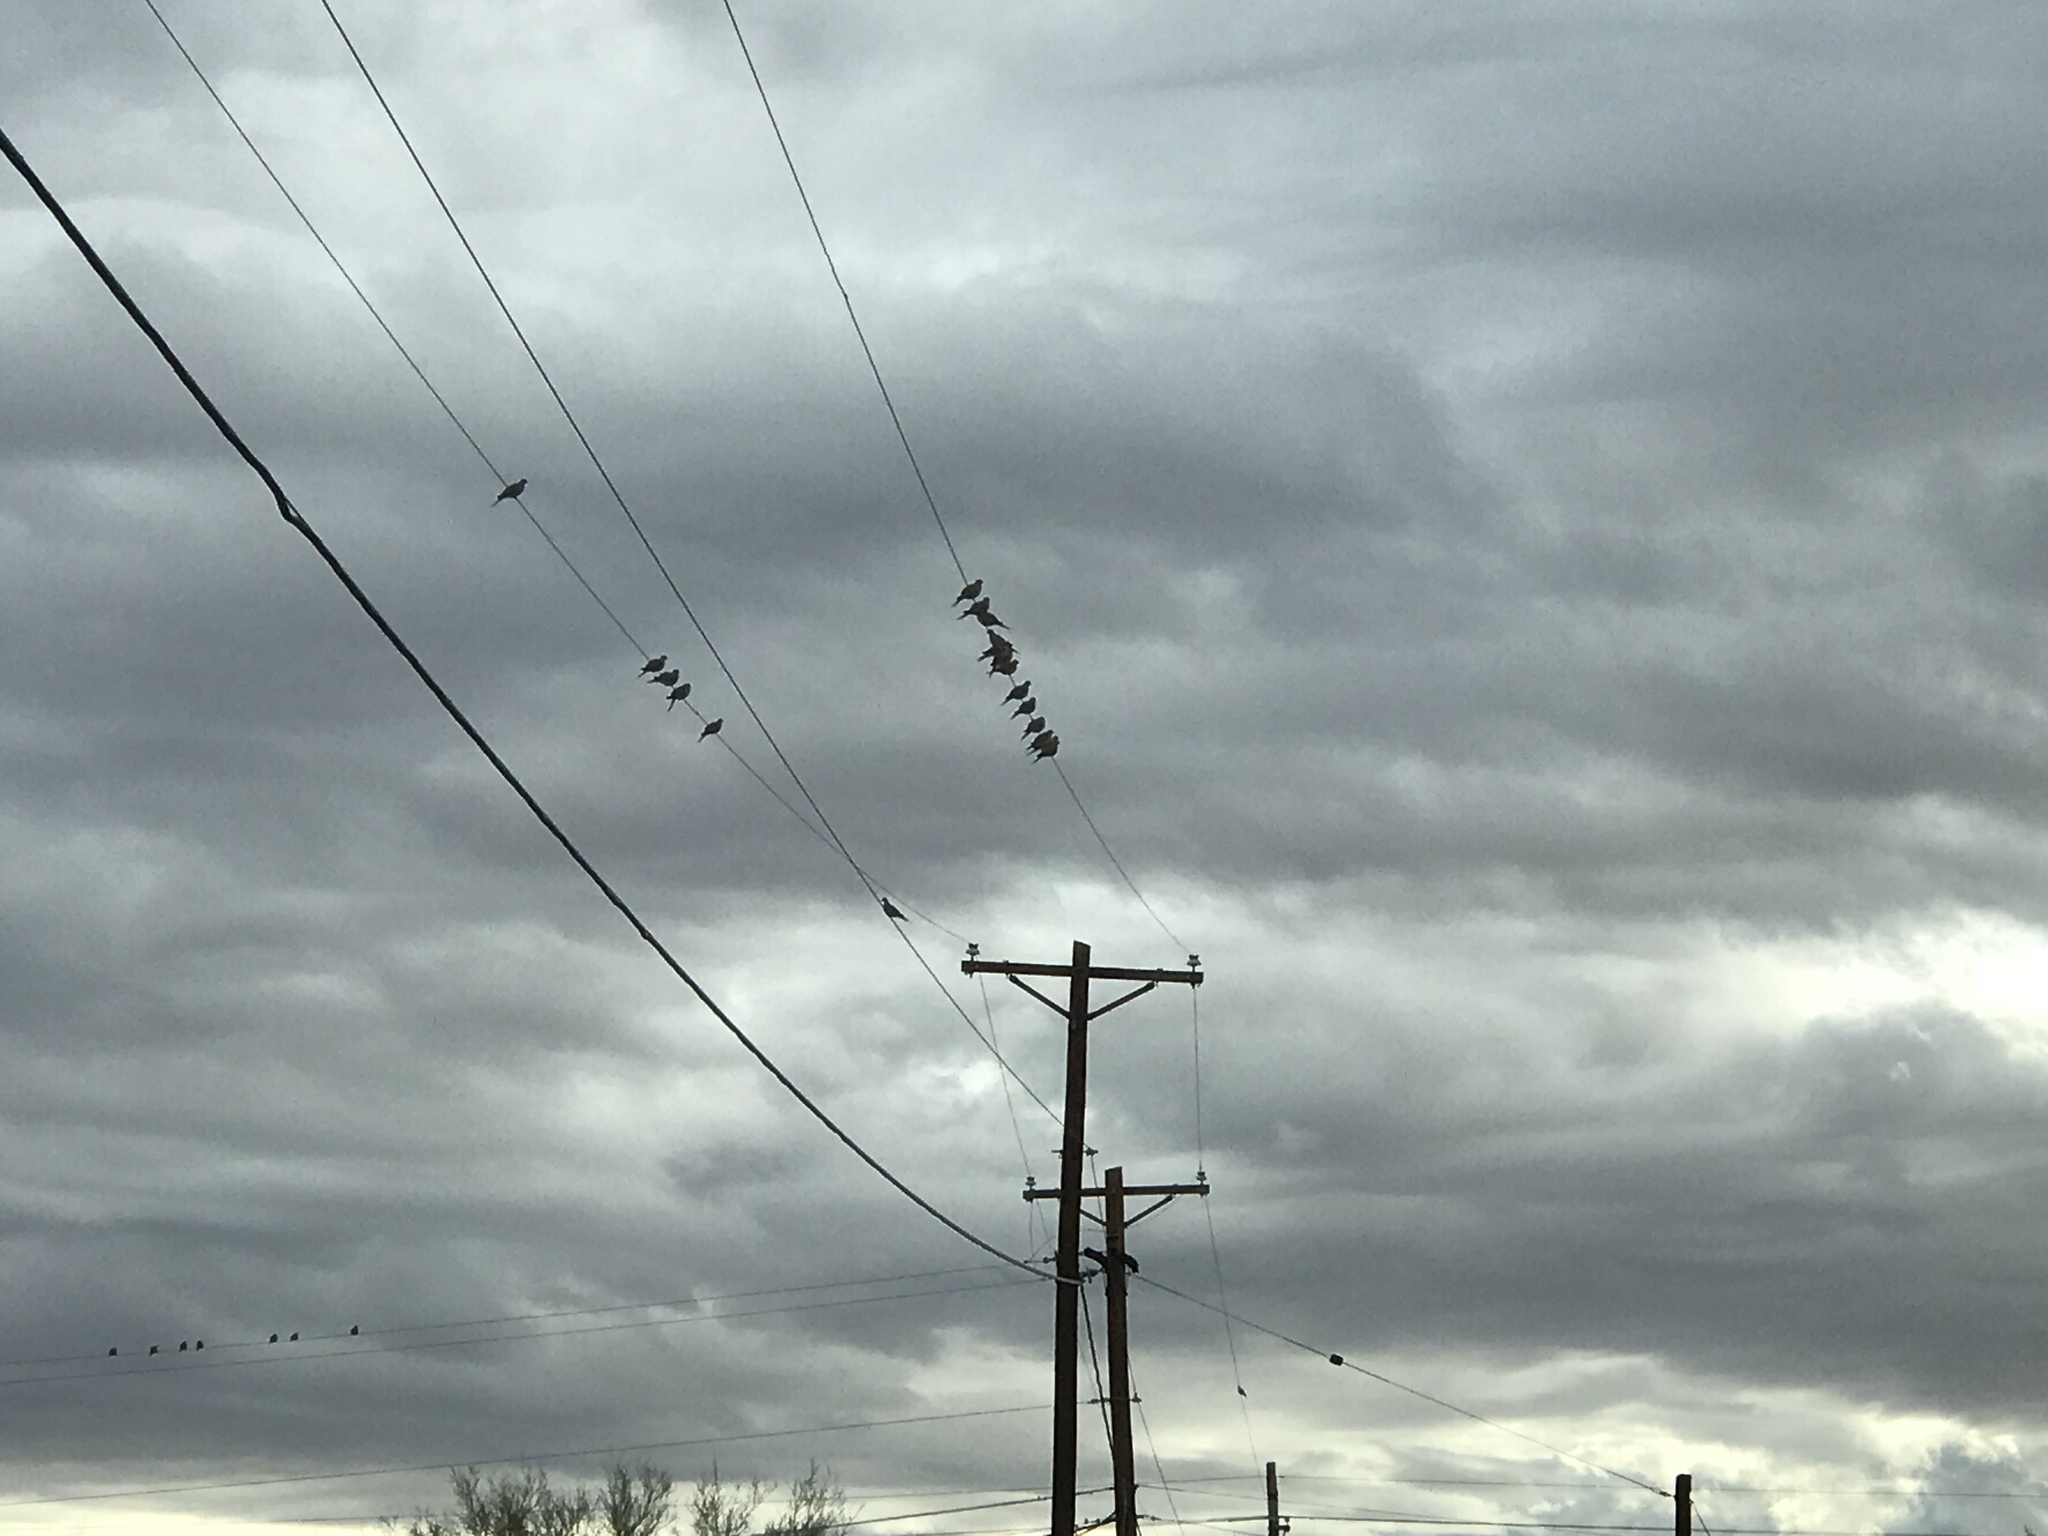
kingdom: Animalia
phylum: Chordata
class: Aves
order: Columbiformes
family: Columbidae
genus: Zenaida
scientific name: Zenaida macroura
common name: Mourning dove
